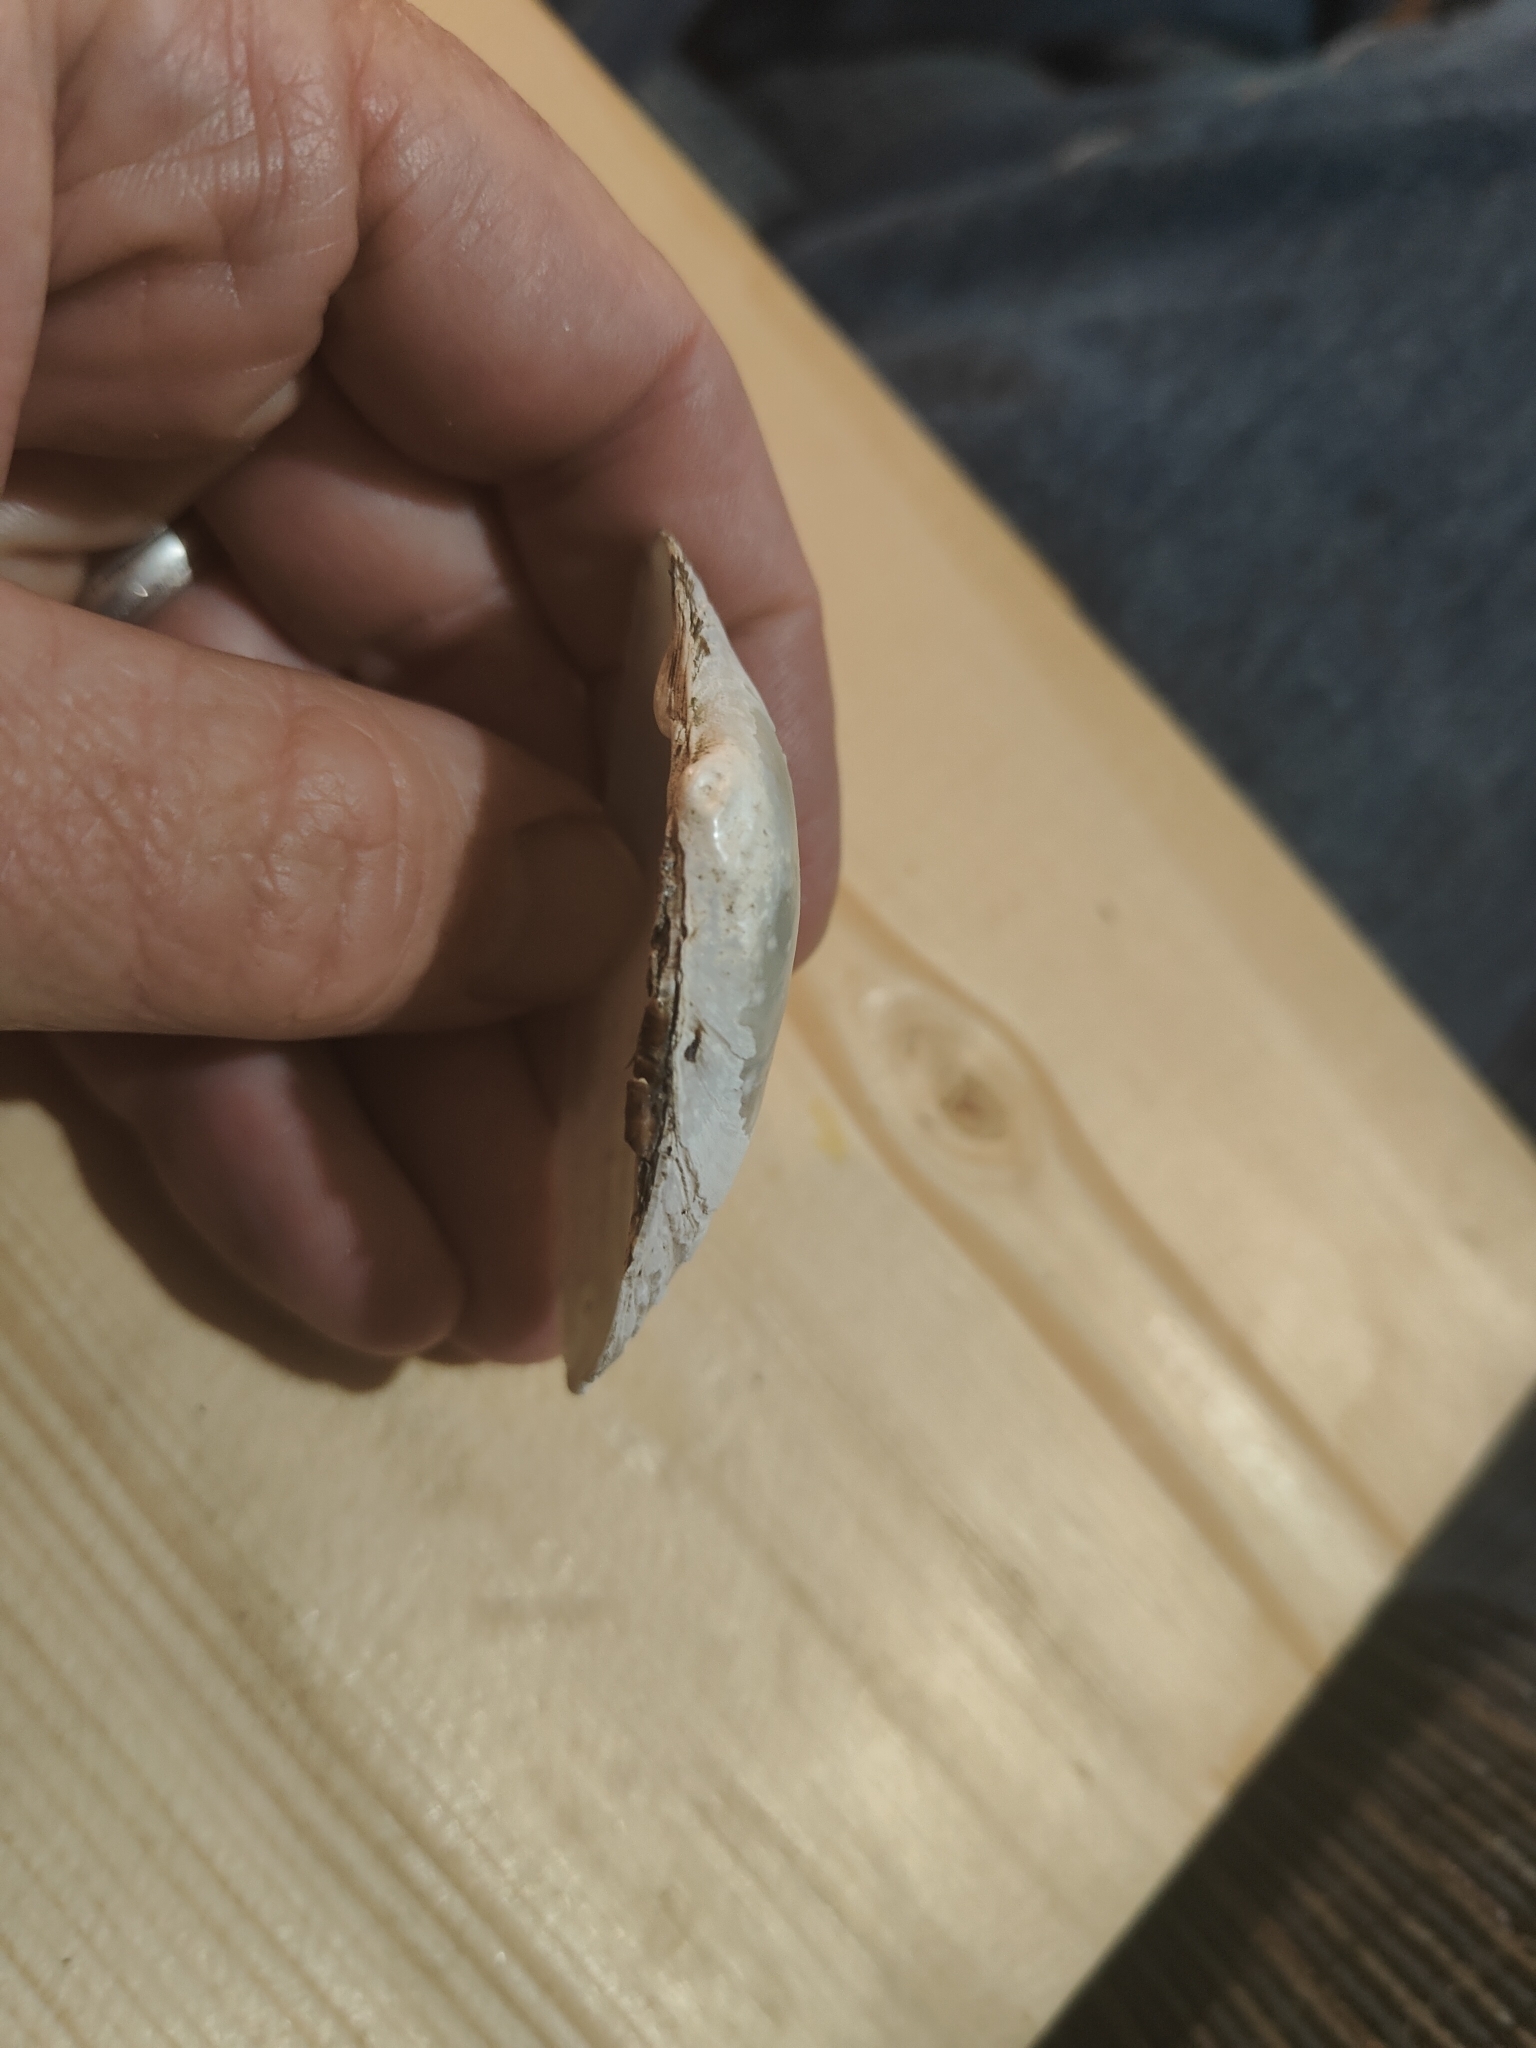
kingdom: Animalia
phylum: Mollusca
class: Bivalvia
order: Unionida
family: Unionidae
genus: Strophitus
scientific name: Strophitus undulatus
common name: Creeper
